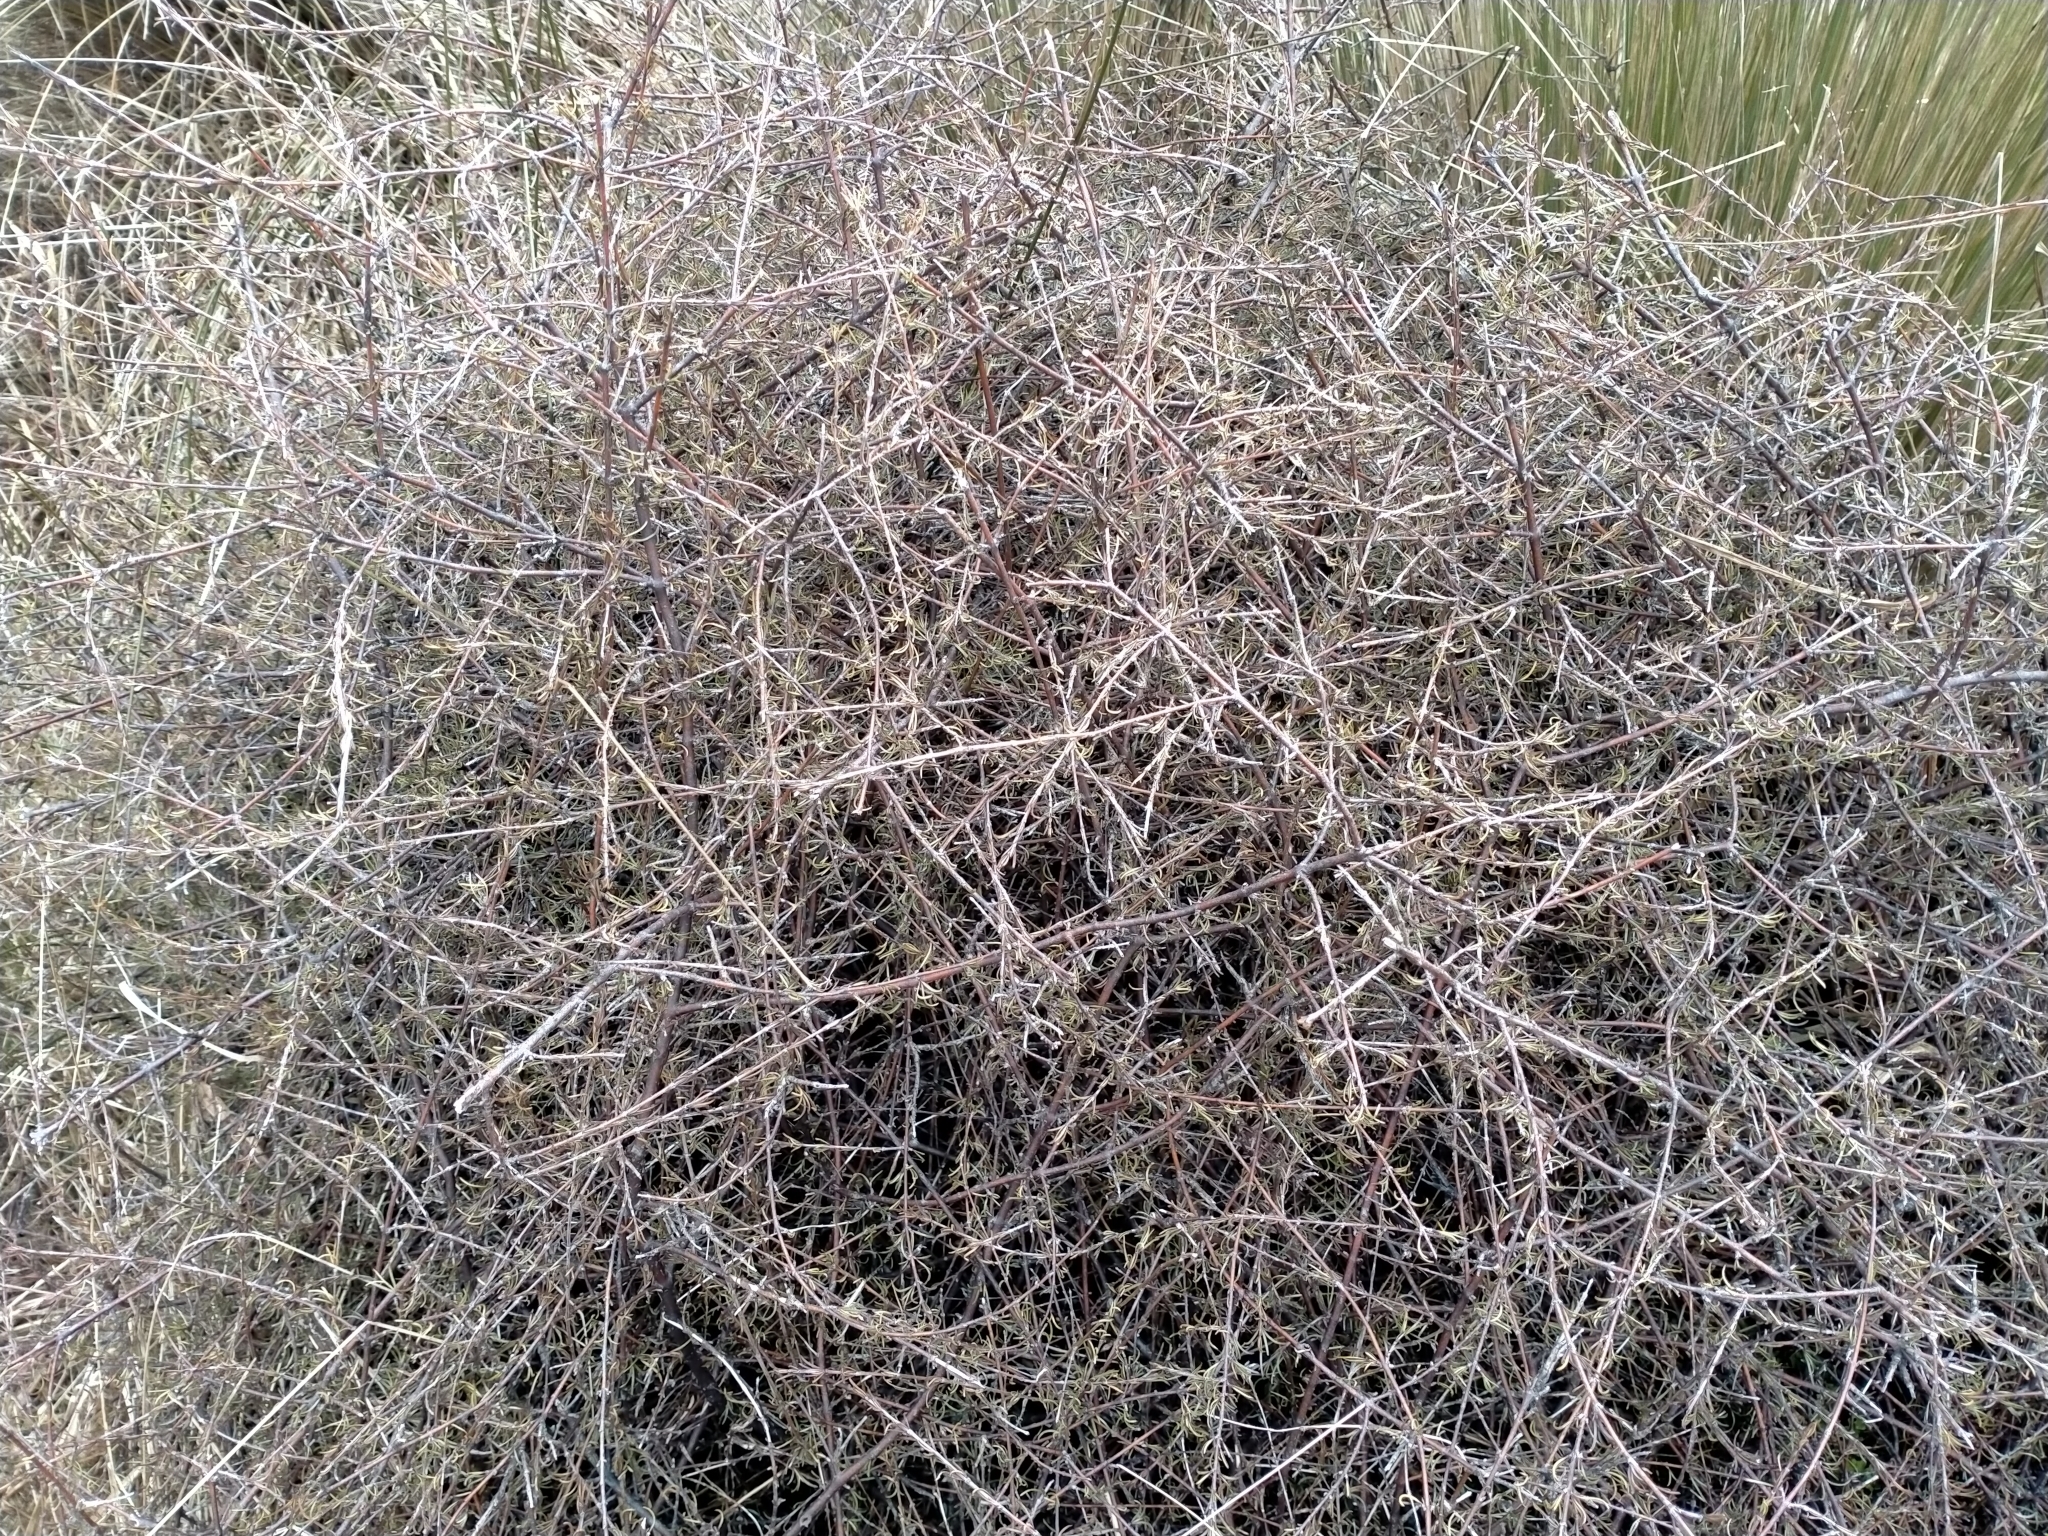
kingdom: Plantae
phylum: Tracheophyta
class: Magnoliopsida
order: Gentianales
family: Rubiaceae
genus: Coprosma
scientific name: Coprosma elatirioides
